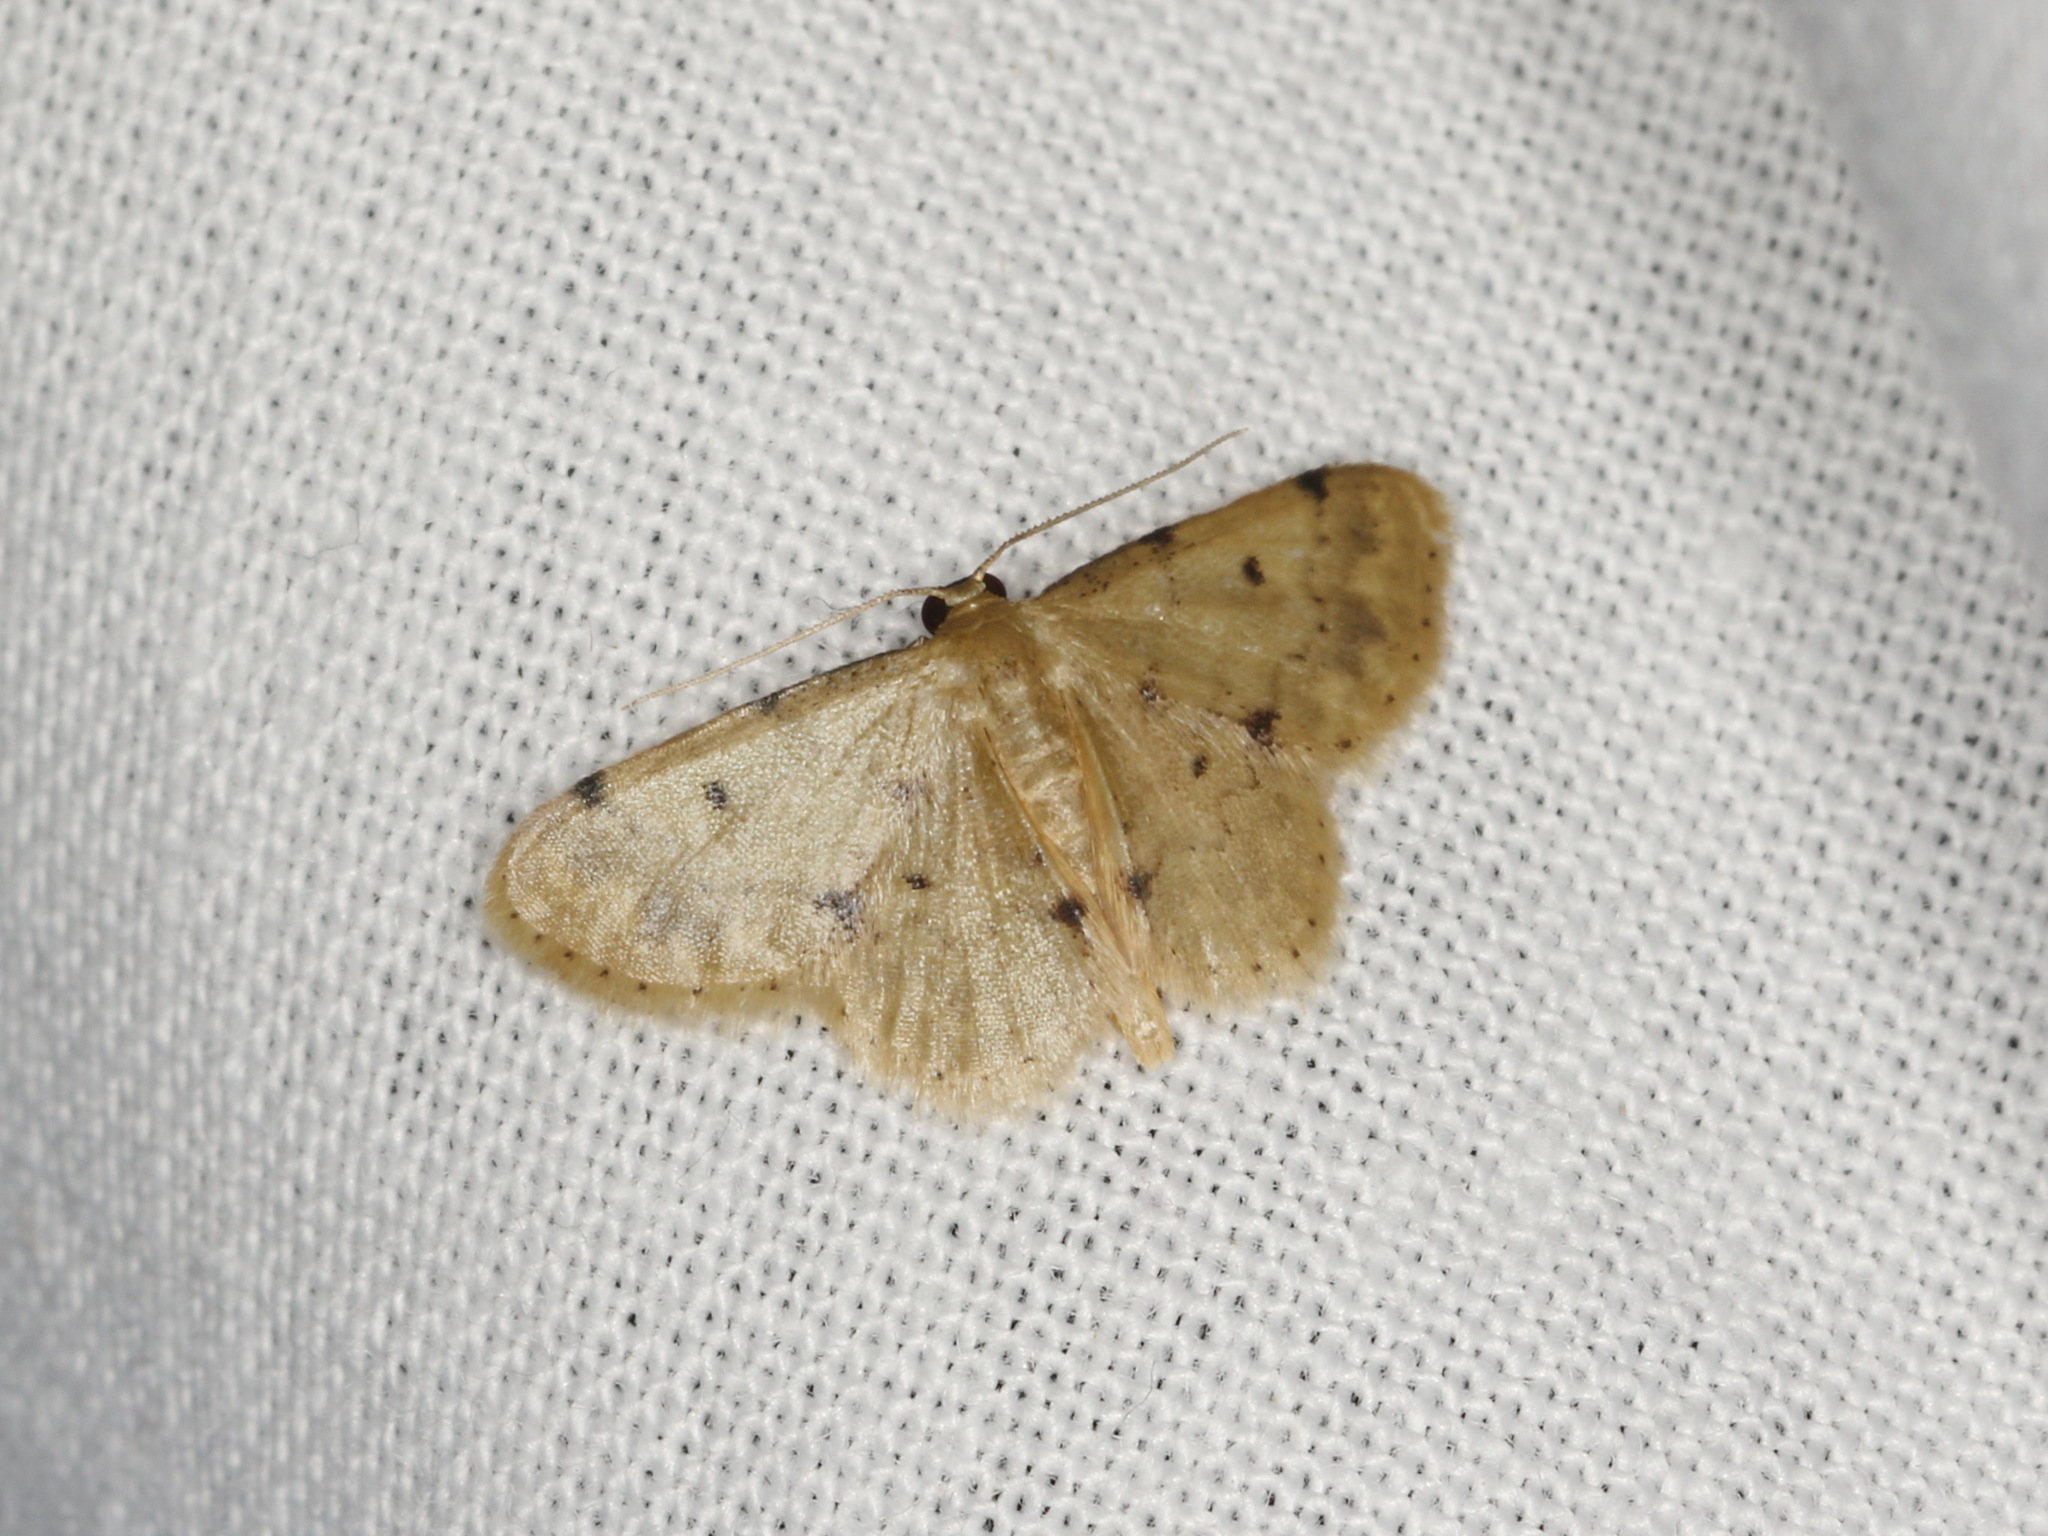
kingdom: Animalia
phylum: Arthropoda
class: Insecta
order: Lepidoptera
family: Geometridae
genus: Idaea
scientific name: Idaea elachista
